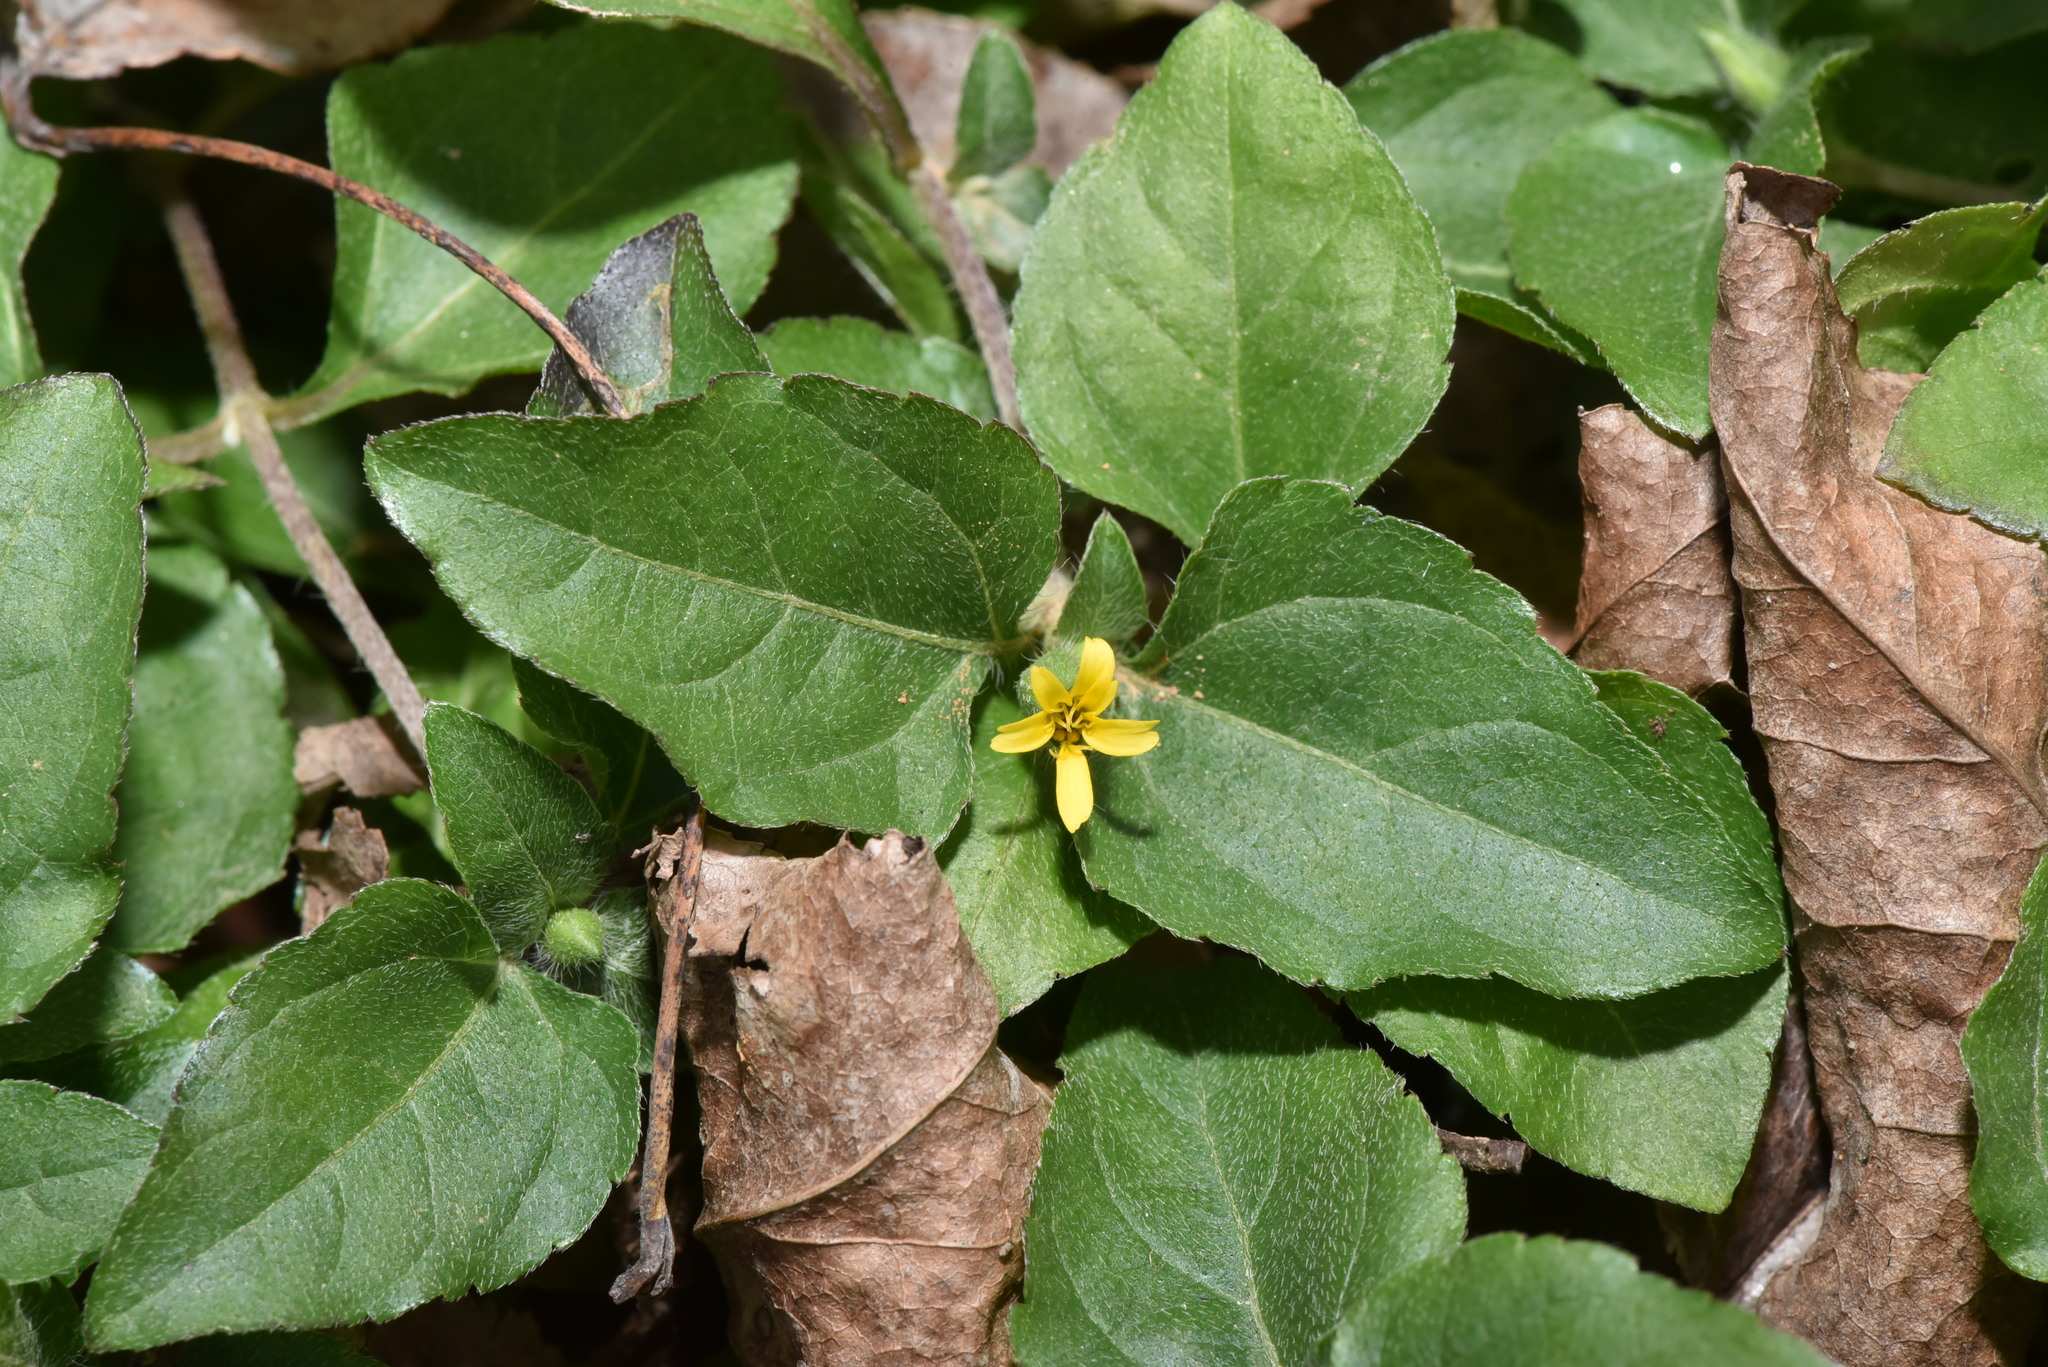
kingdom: Plantae
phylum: Tracheophyta
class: Magnoliopsida
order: Asterales
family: Asteraceae
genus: Calyptocarpus
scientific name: Calyptocarpus vialis
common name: Straggler daisy
